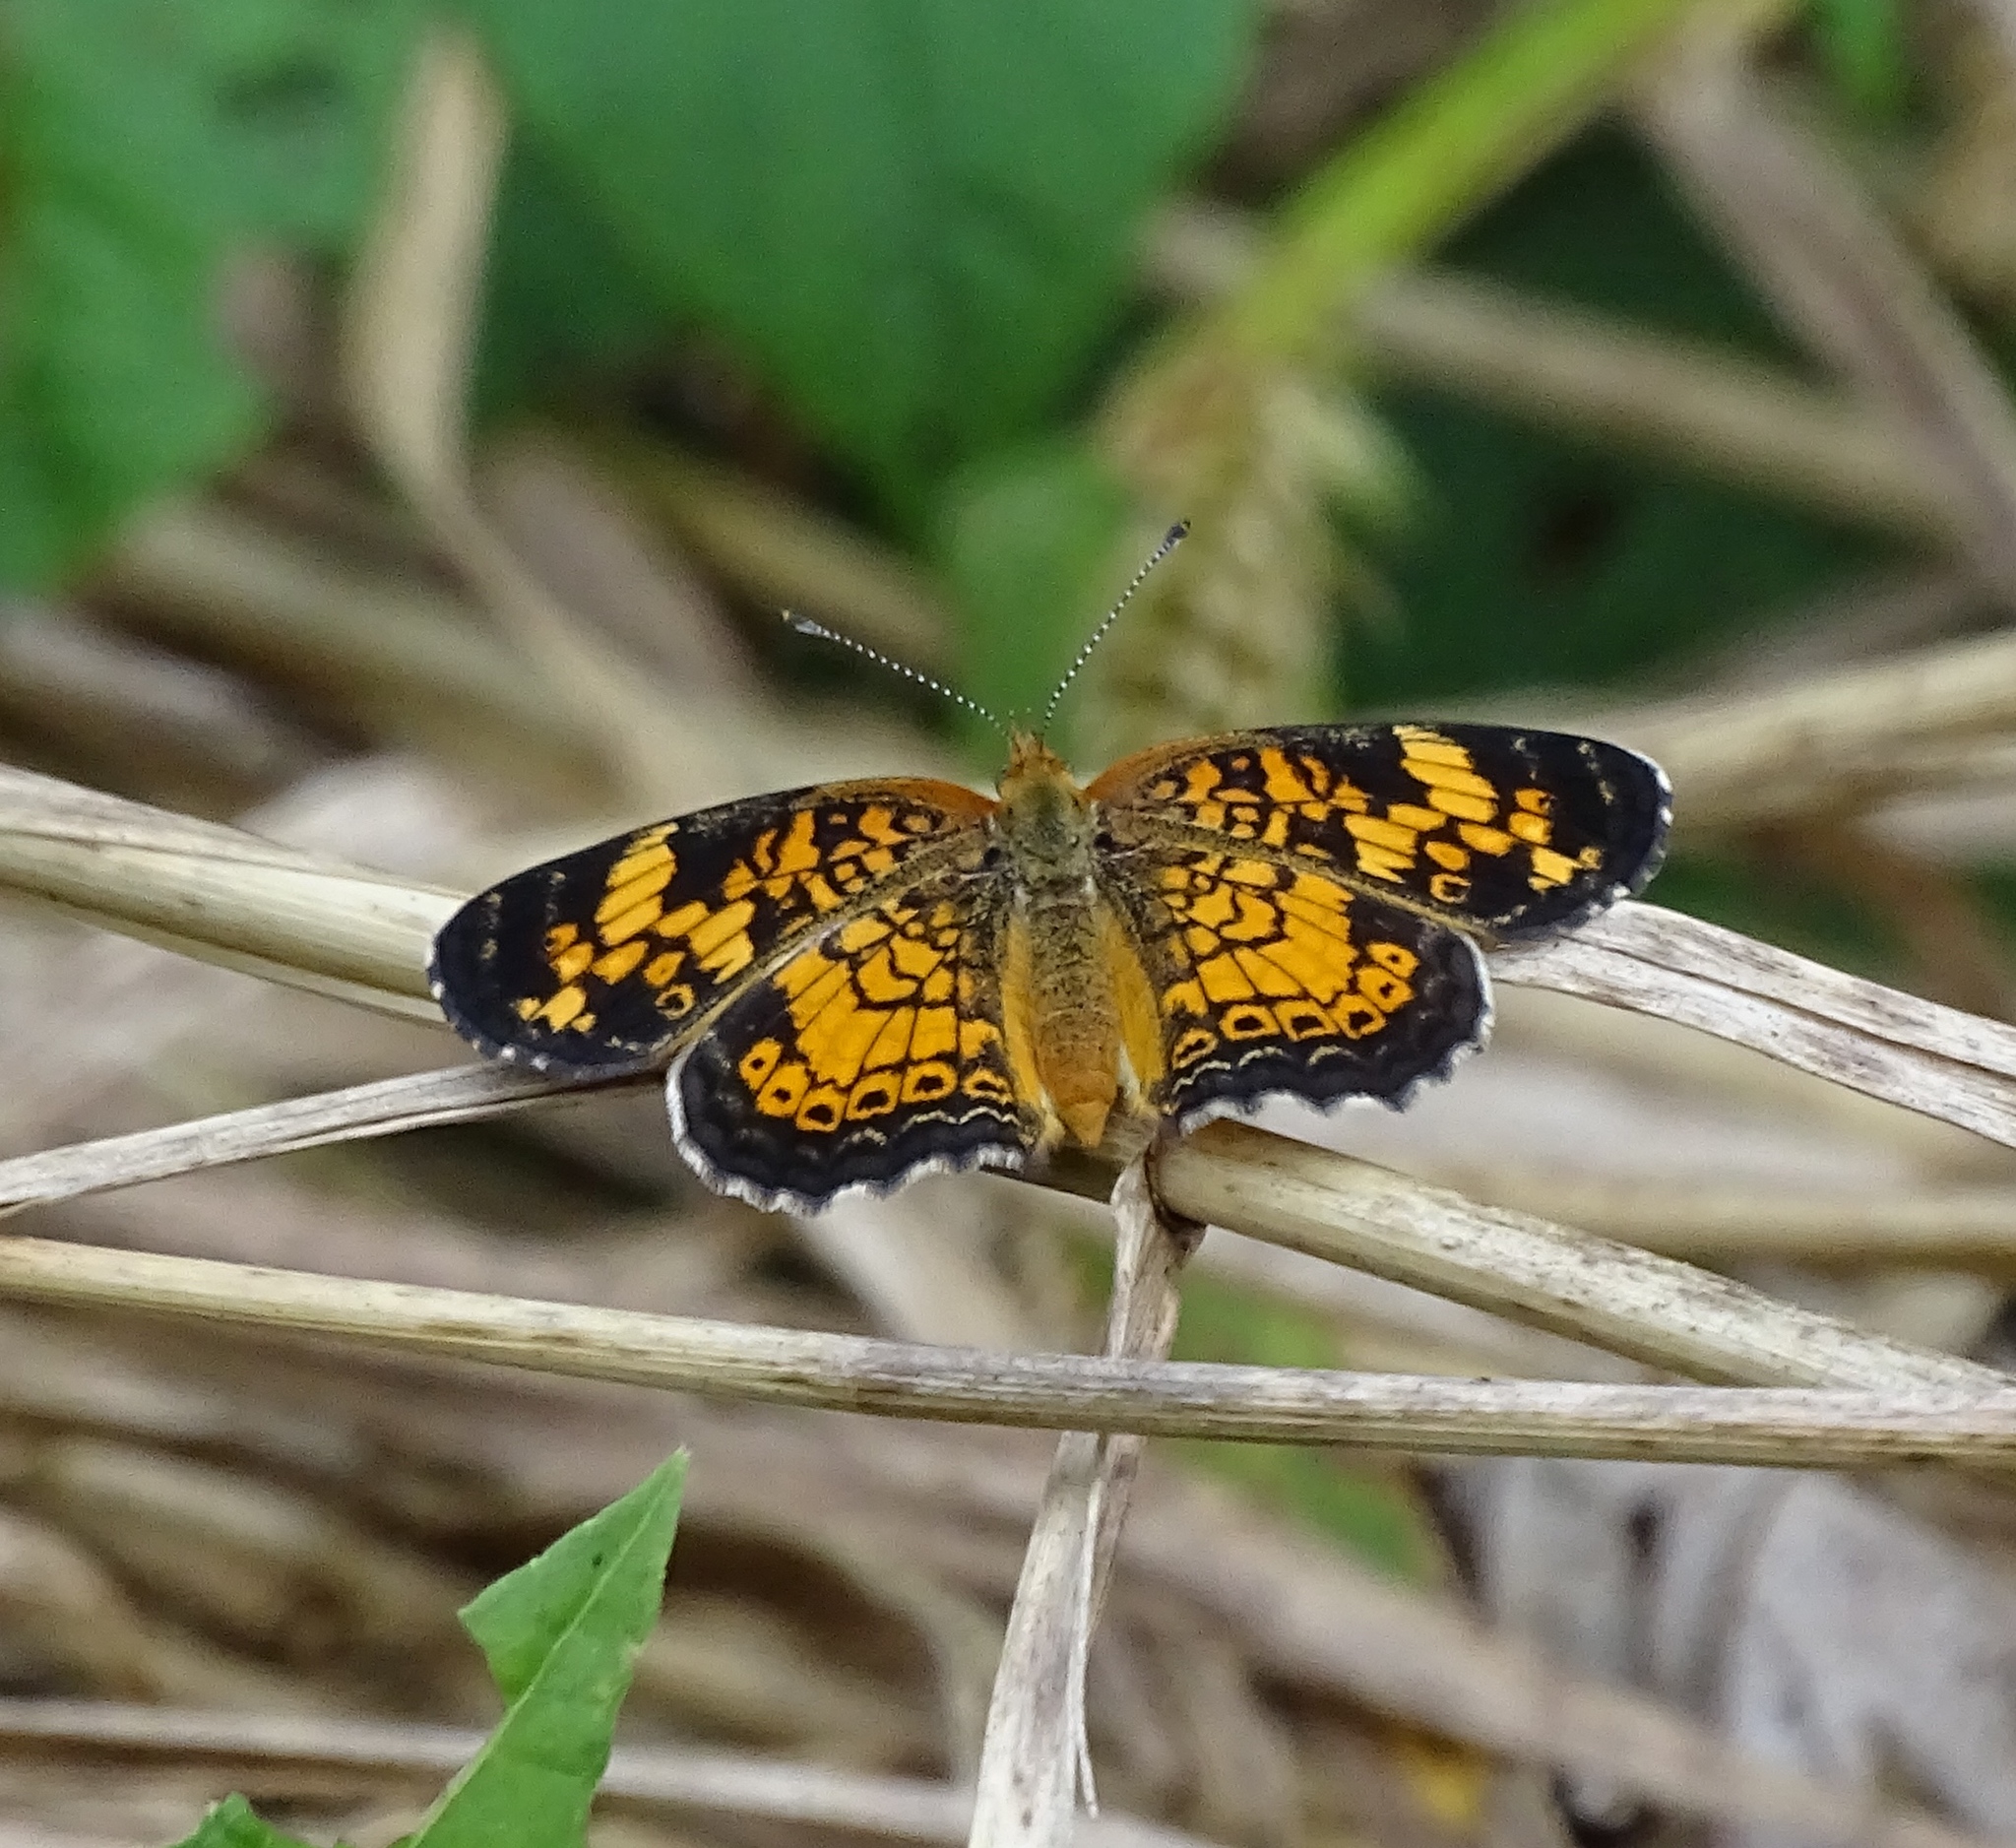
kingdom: Animalia
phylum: Arthropoda
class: Insecta
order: Lepidoptera
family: Nymphalidae
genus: Phyciodes
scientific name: Phyciodes tharos
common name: Pearl crescent
